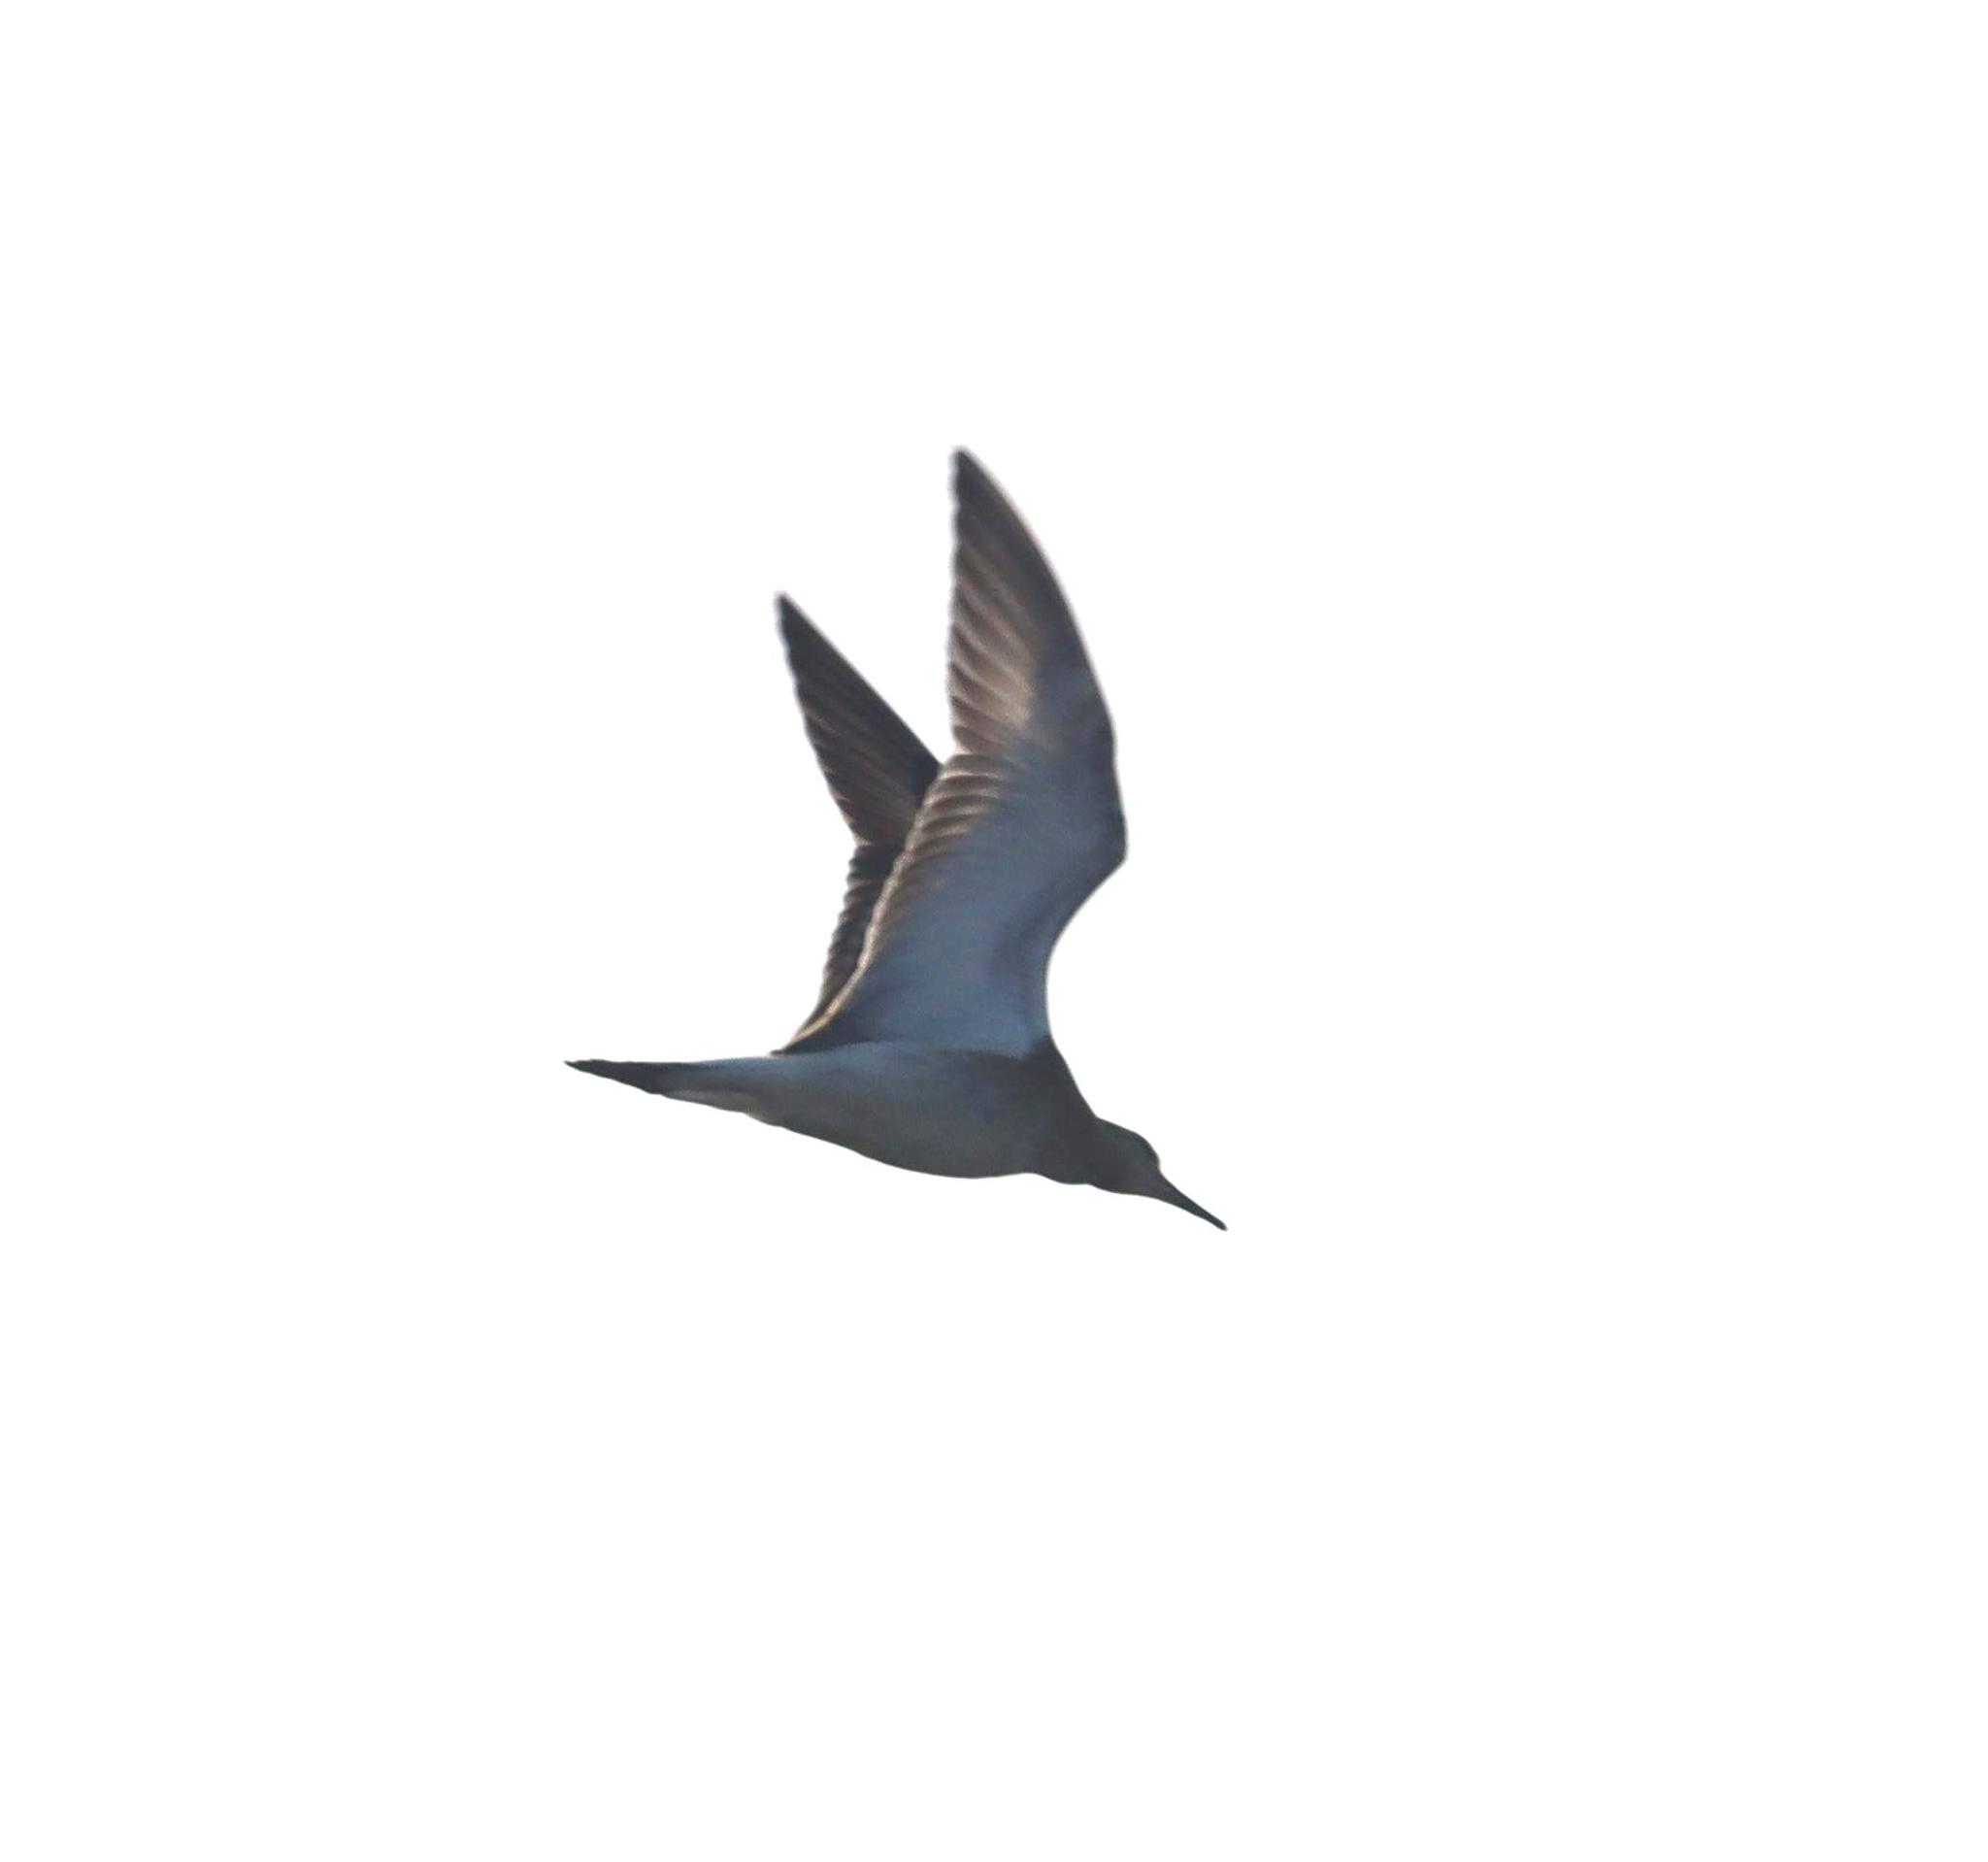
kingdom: Animalia
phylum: Chordata
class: Aves
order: Charadriiformes
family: Scolopacidae
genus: Calidris
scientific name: Calidris pugnax
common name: Ruff
